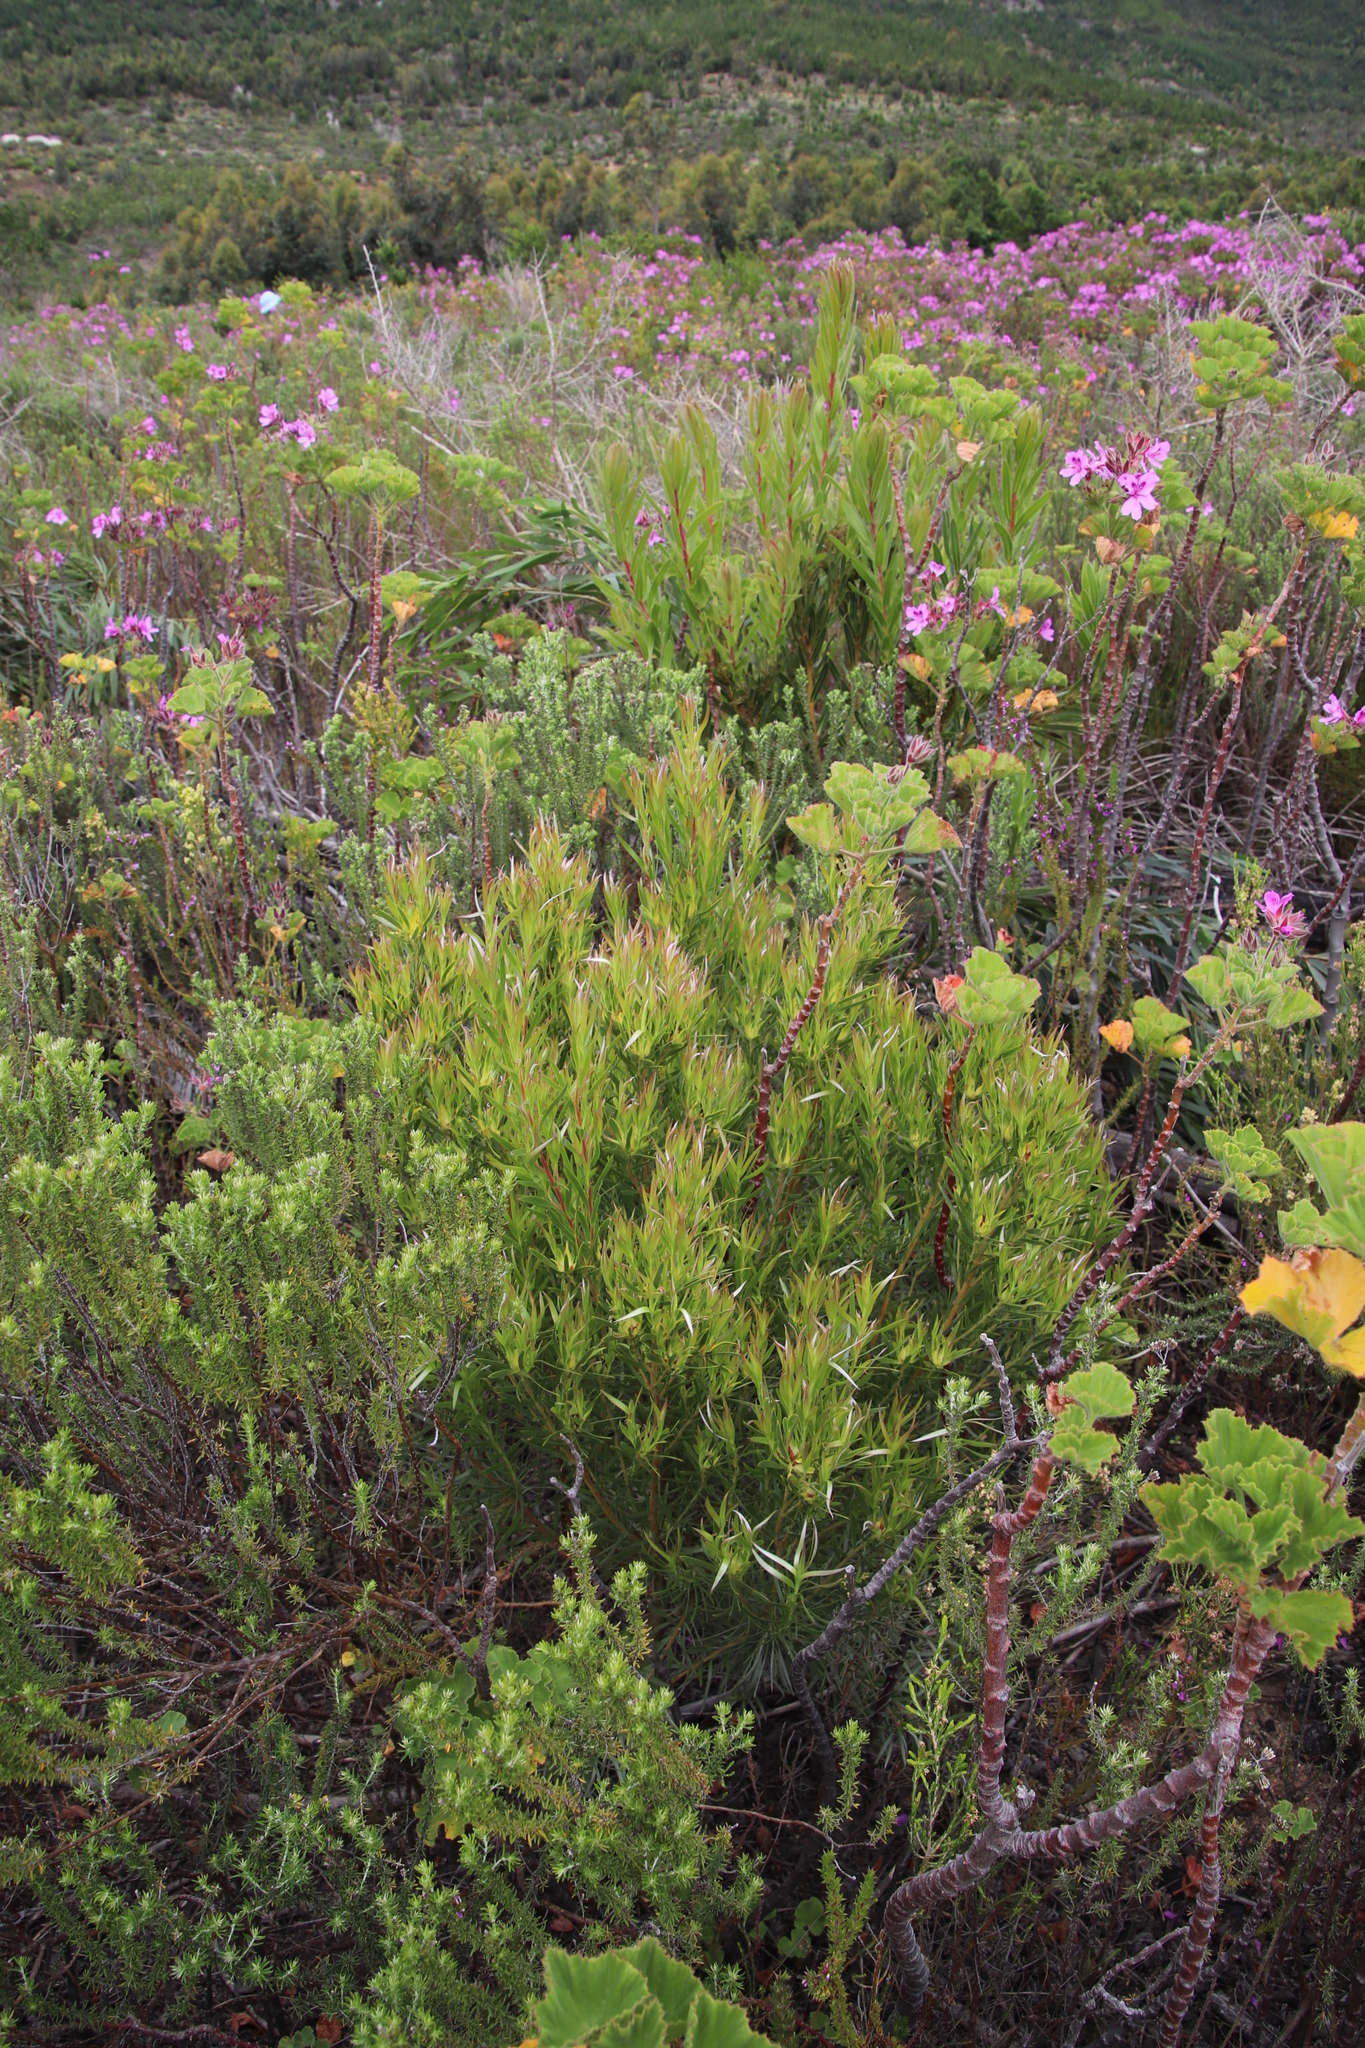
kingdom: Plantae
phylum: Tracheophyta
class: Magnoliopsida
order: Proteales
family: Proteaceae
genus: Leucadendron
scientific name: Leucadendron xanthoconus
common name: Sickle-leaf conebush
